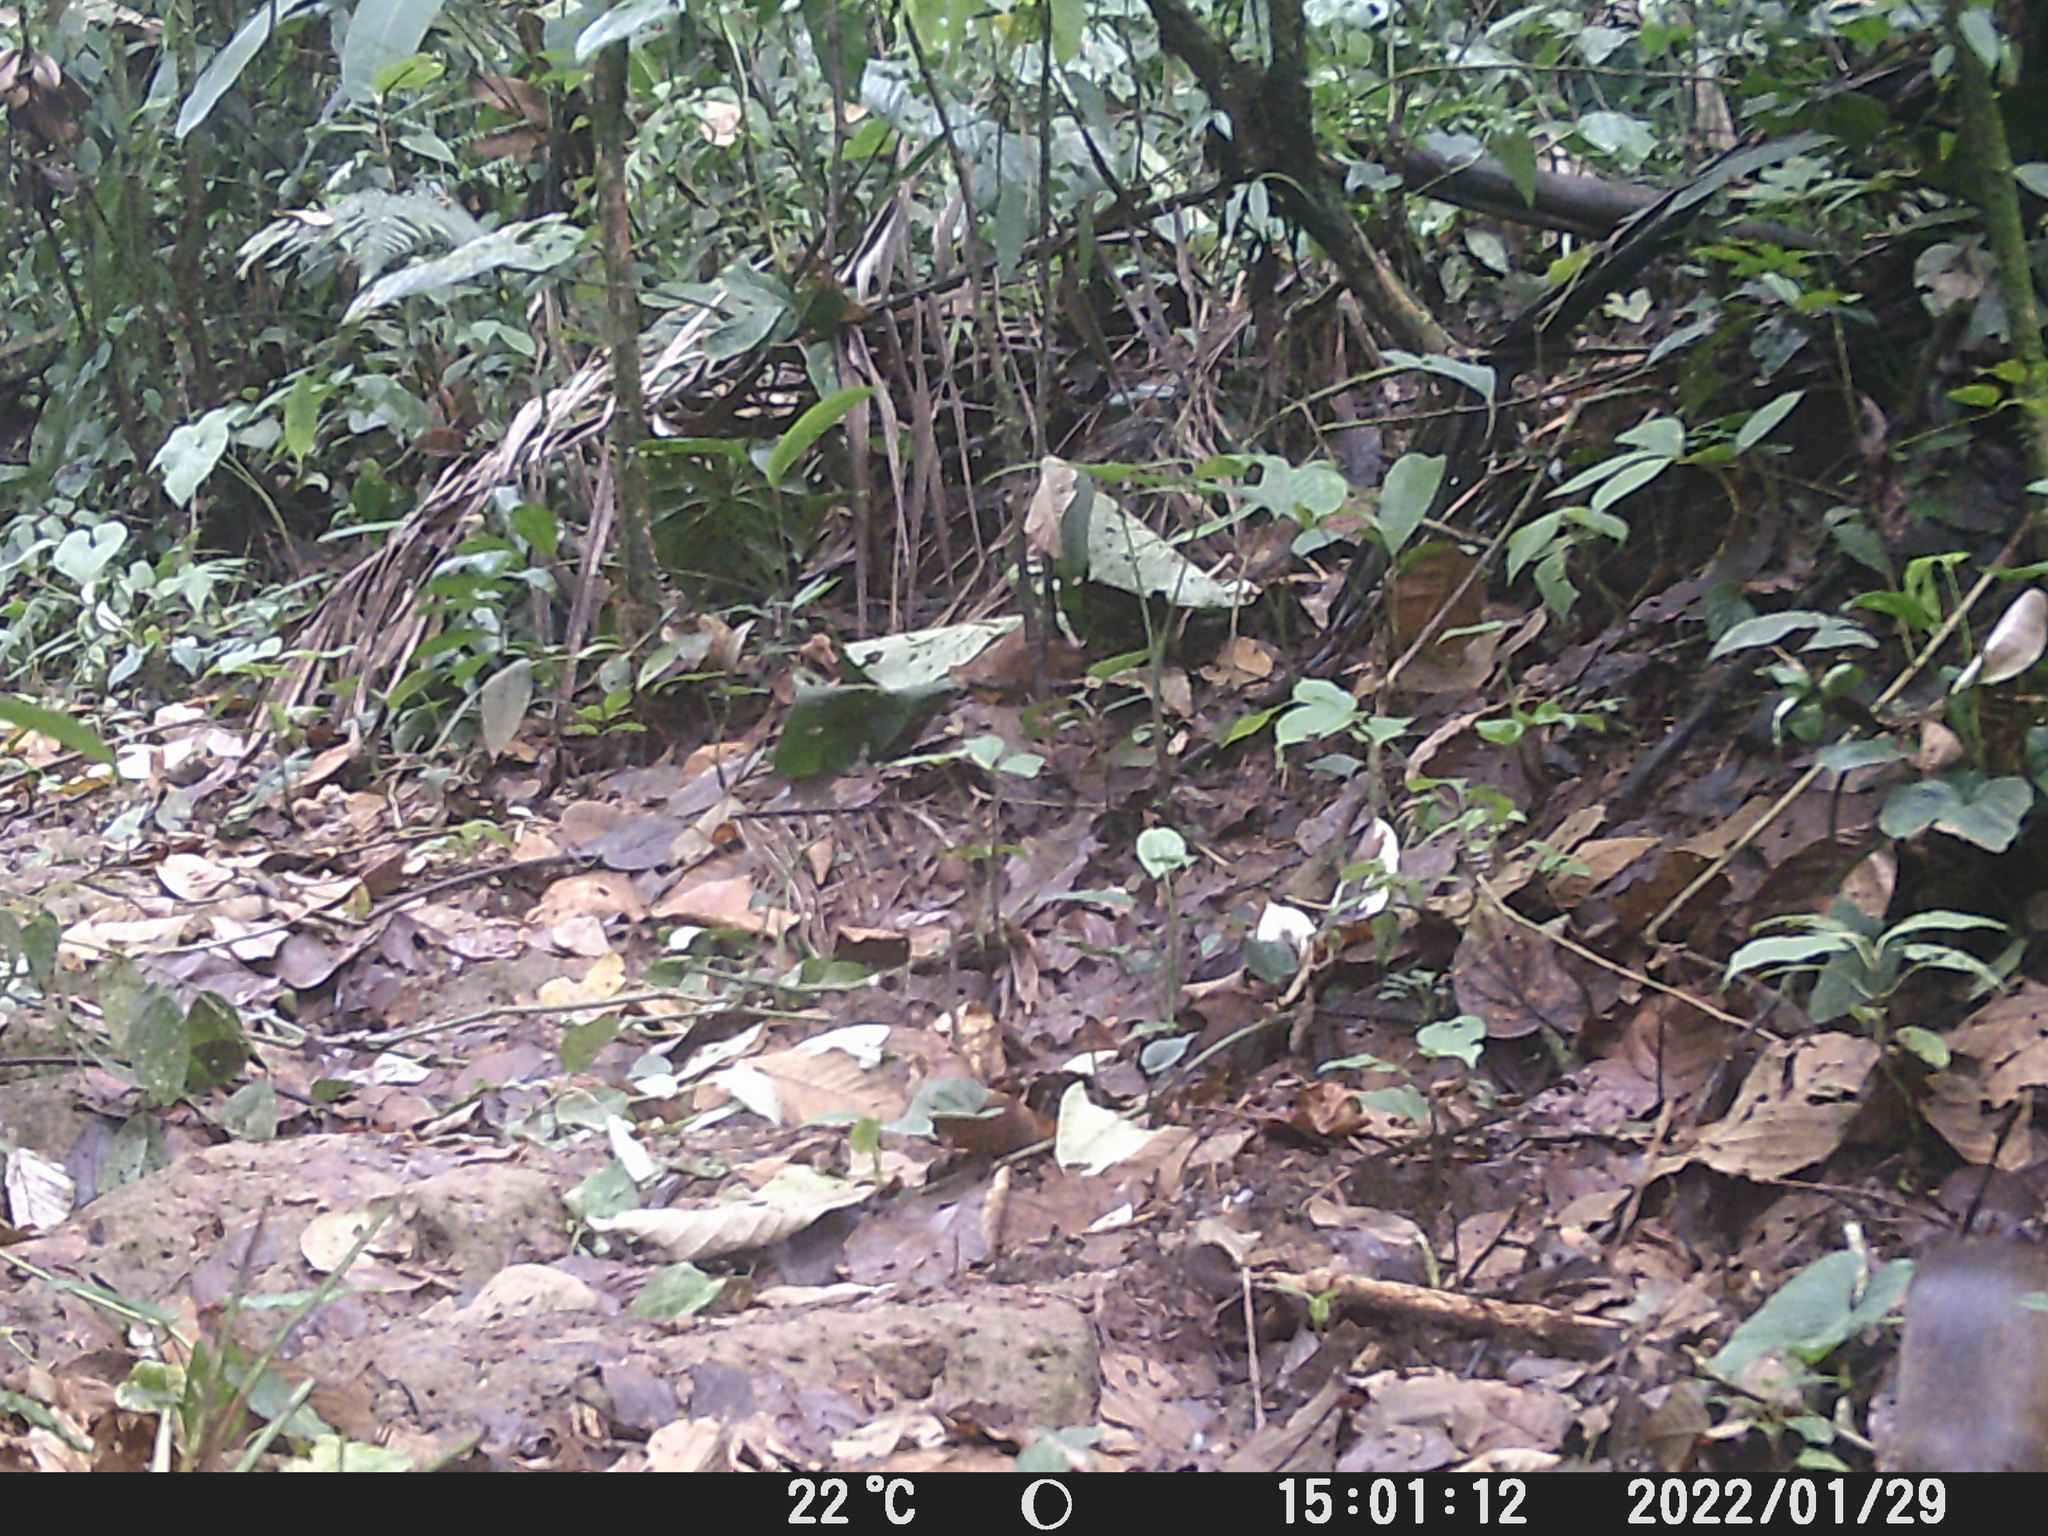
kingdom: Animalia
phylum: Chordata
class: Mammalia
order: Rodentia
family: Dasyproctidae
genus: Dasyprocta
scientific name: Dasyprocta punctata
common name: Central american agouti
